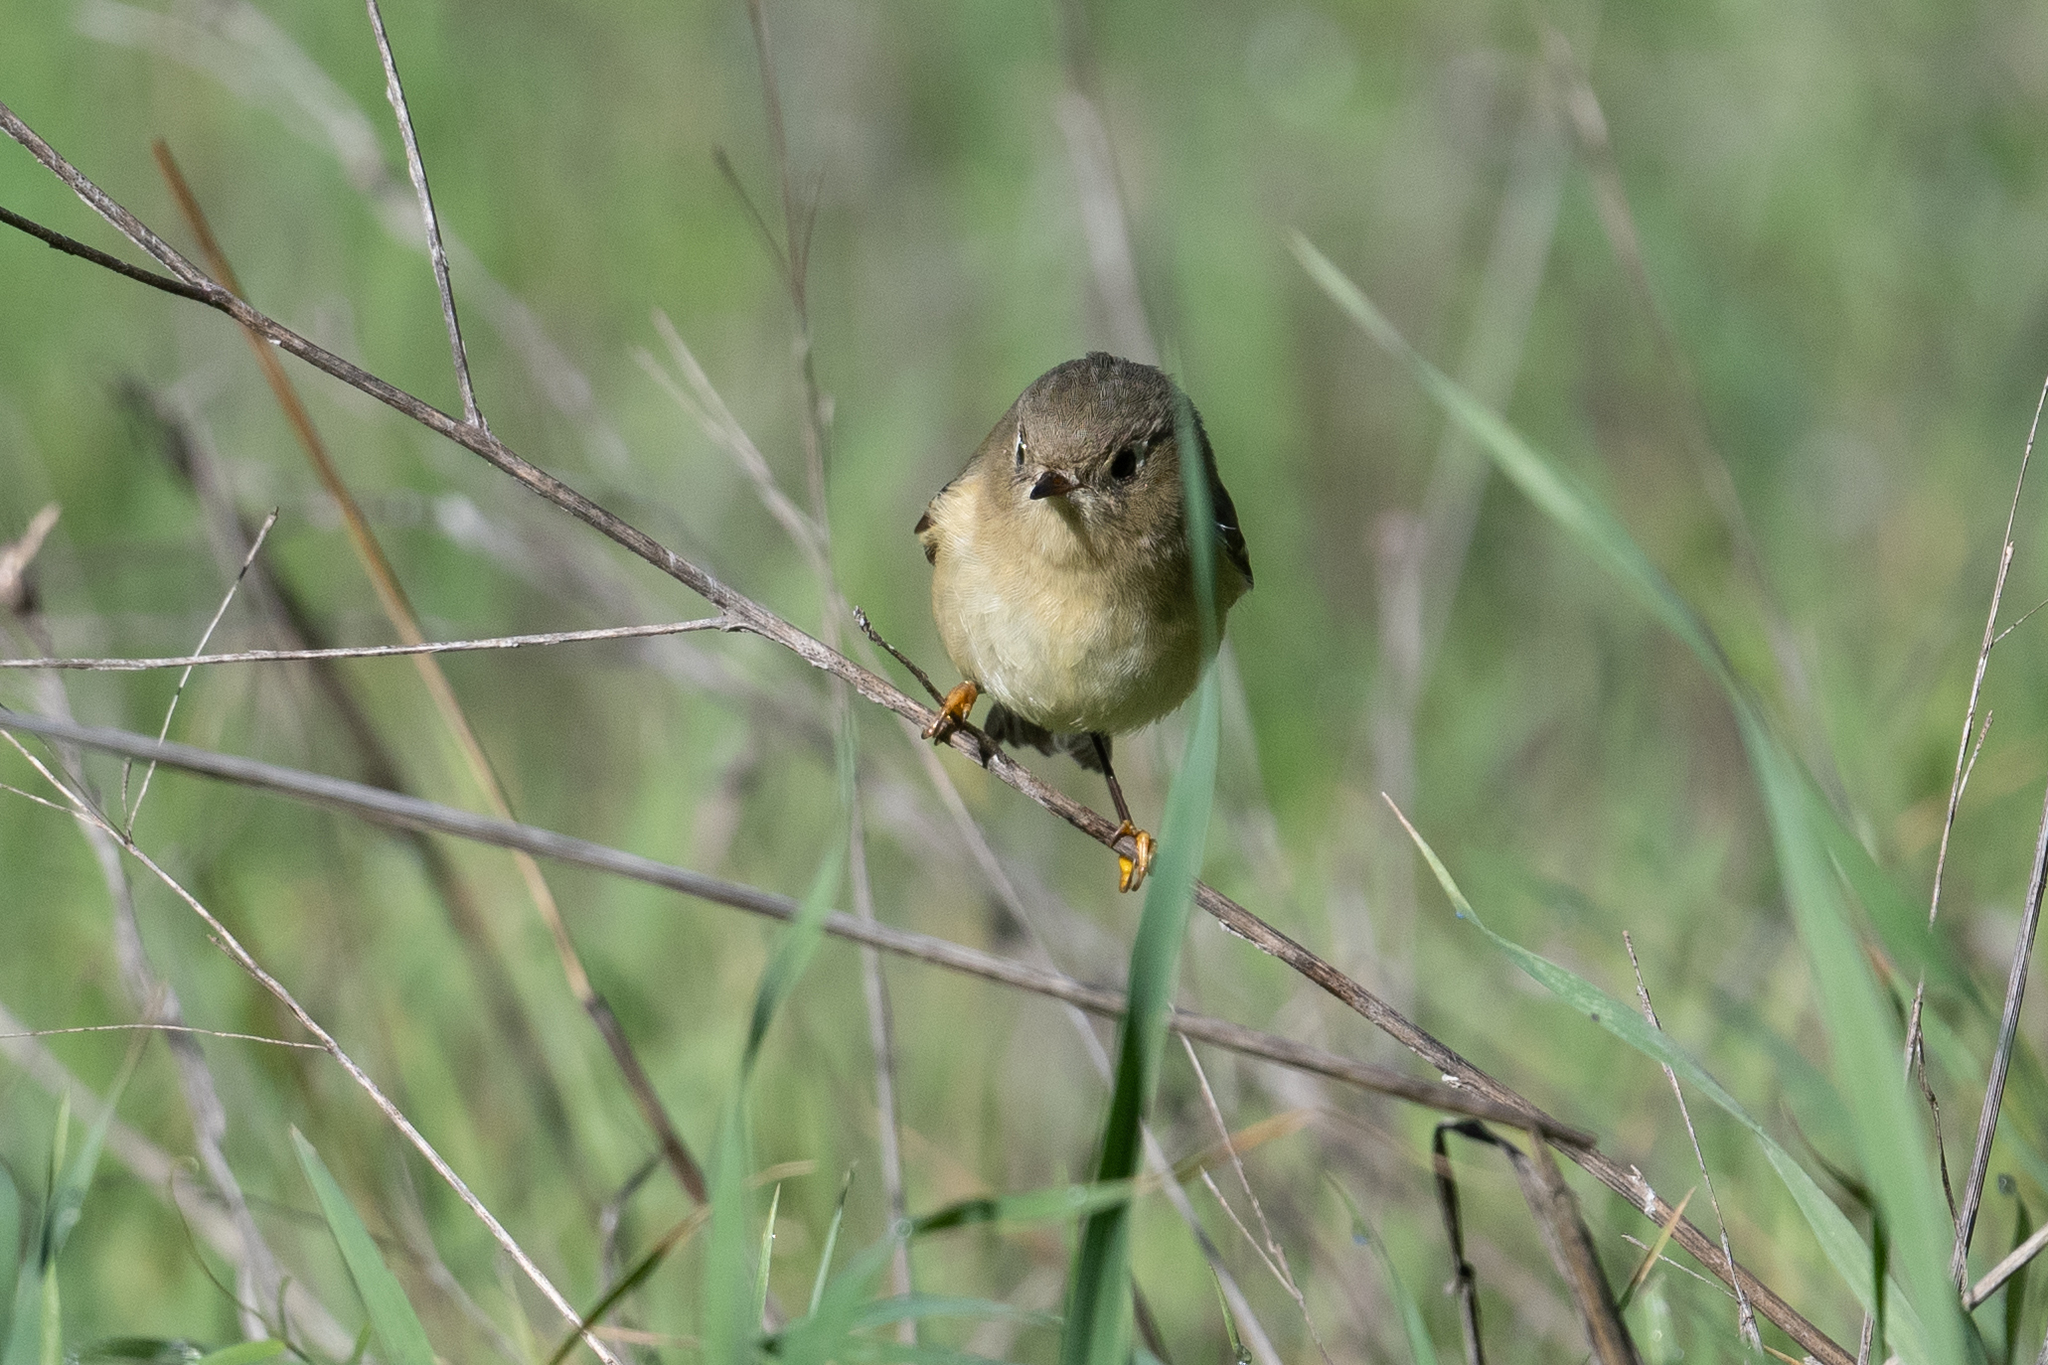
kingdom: Animalia
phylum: Chordata
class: Aves
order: Passeriformes
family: Regulidae
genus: Regulus
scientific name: Regulus calendula
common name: Ruby-crowned kinglet
